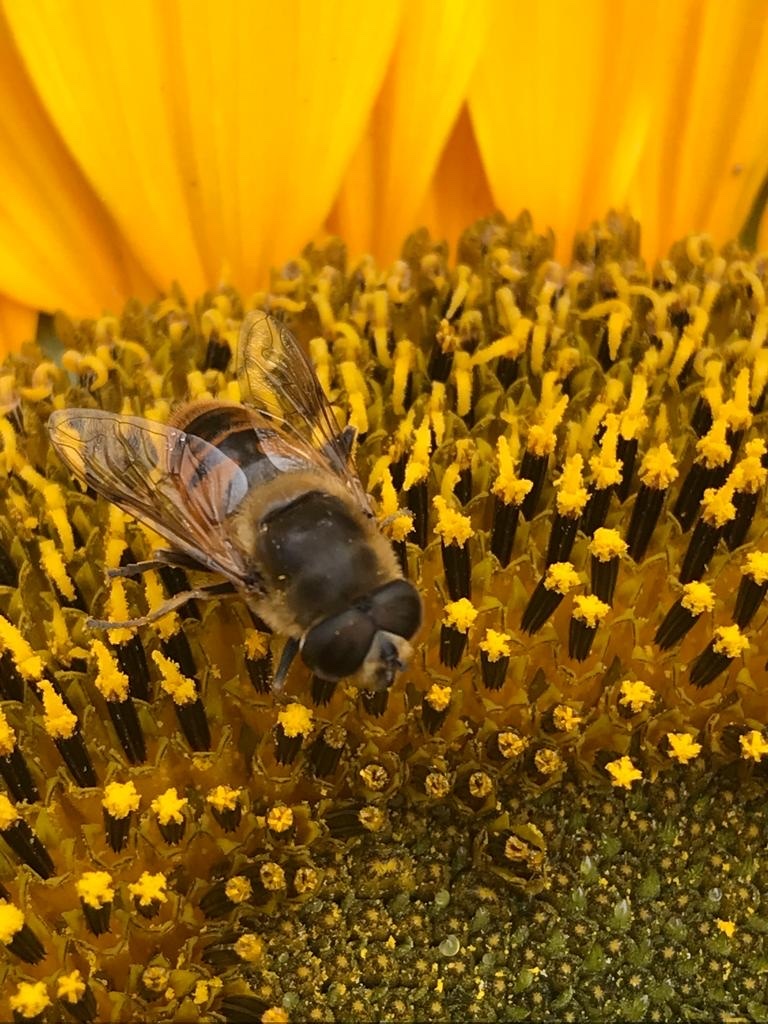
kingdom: Animalia
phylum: Arthropoda
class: Insecta
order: Diptera
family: Syrphidae
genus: Eristalis
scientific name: Eristalis tenax
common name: Drone fly
